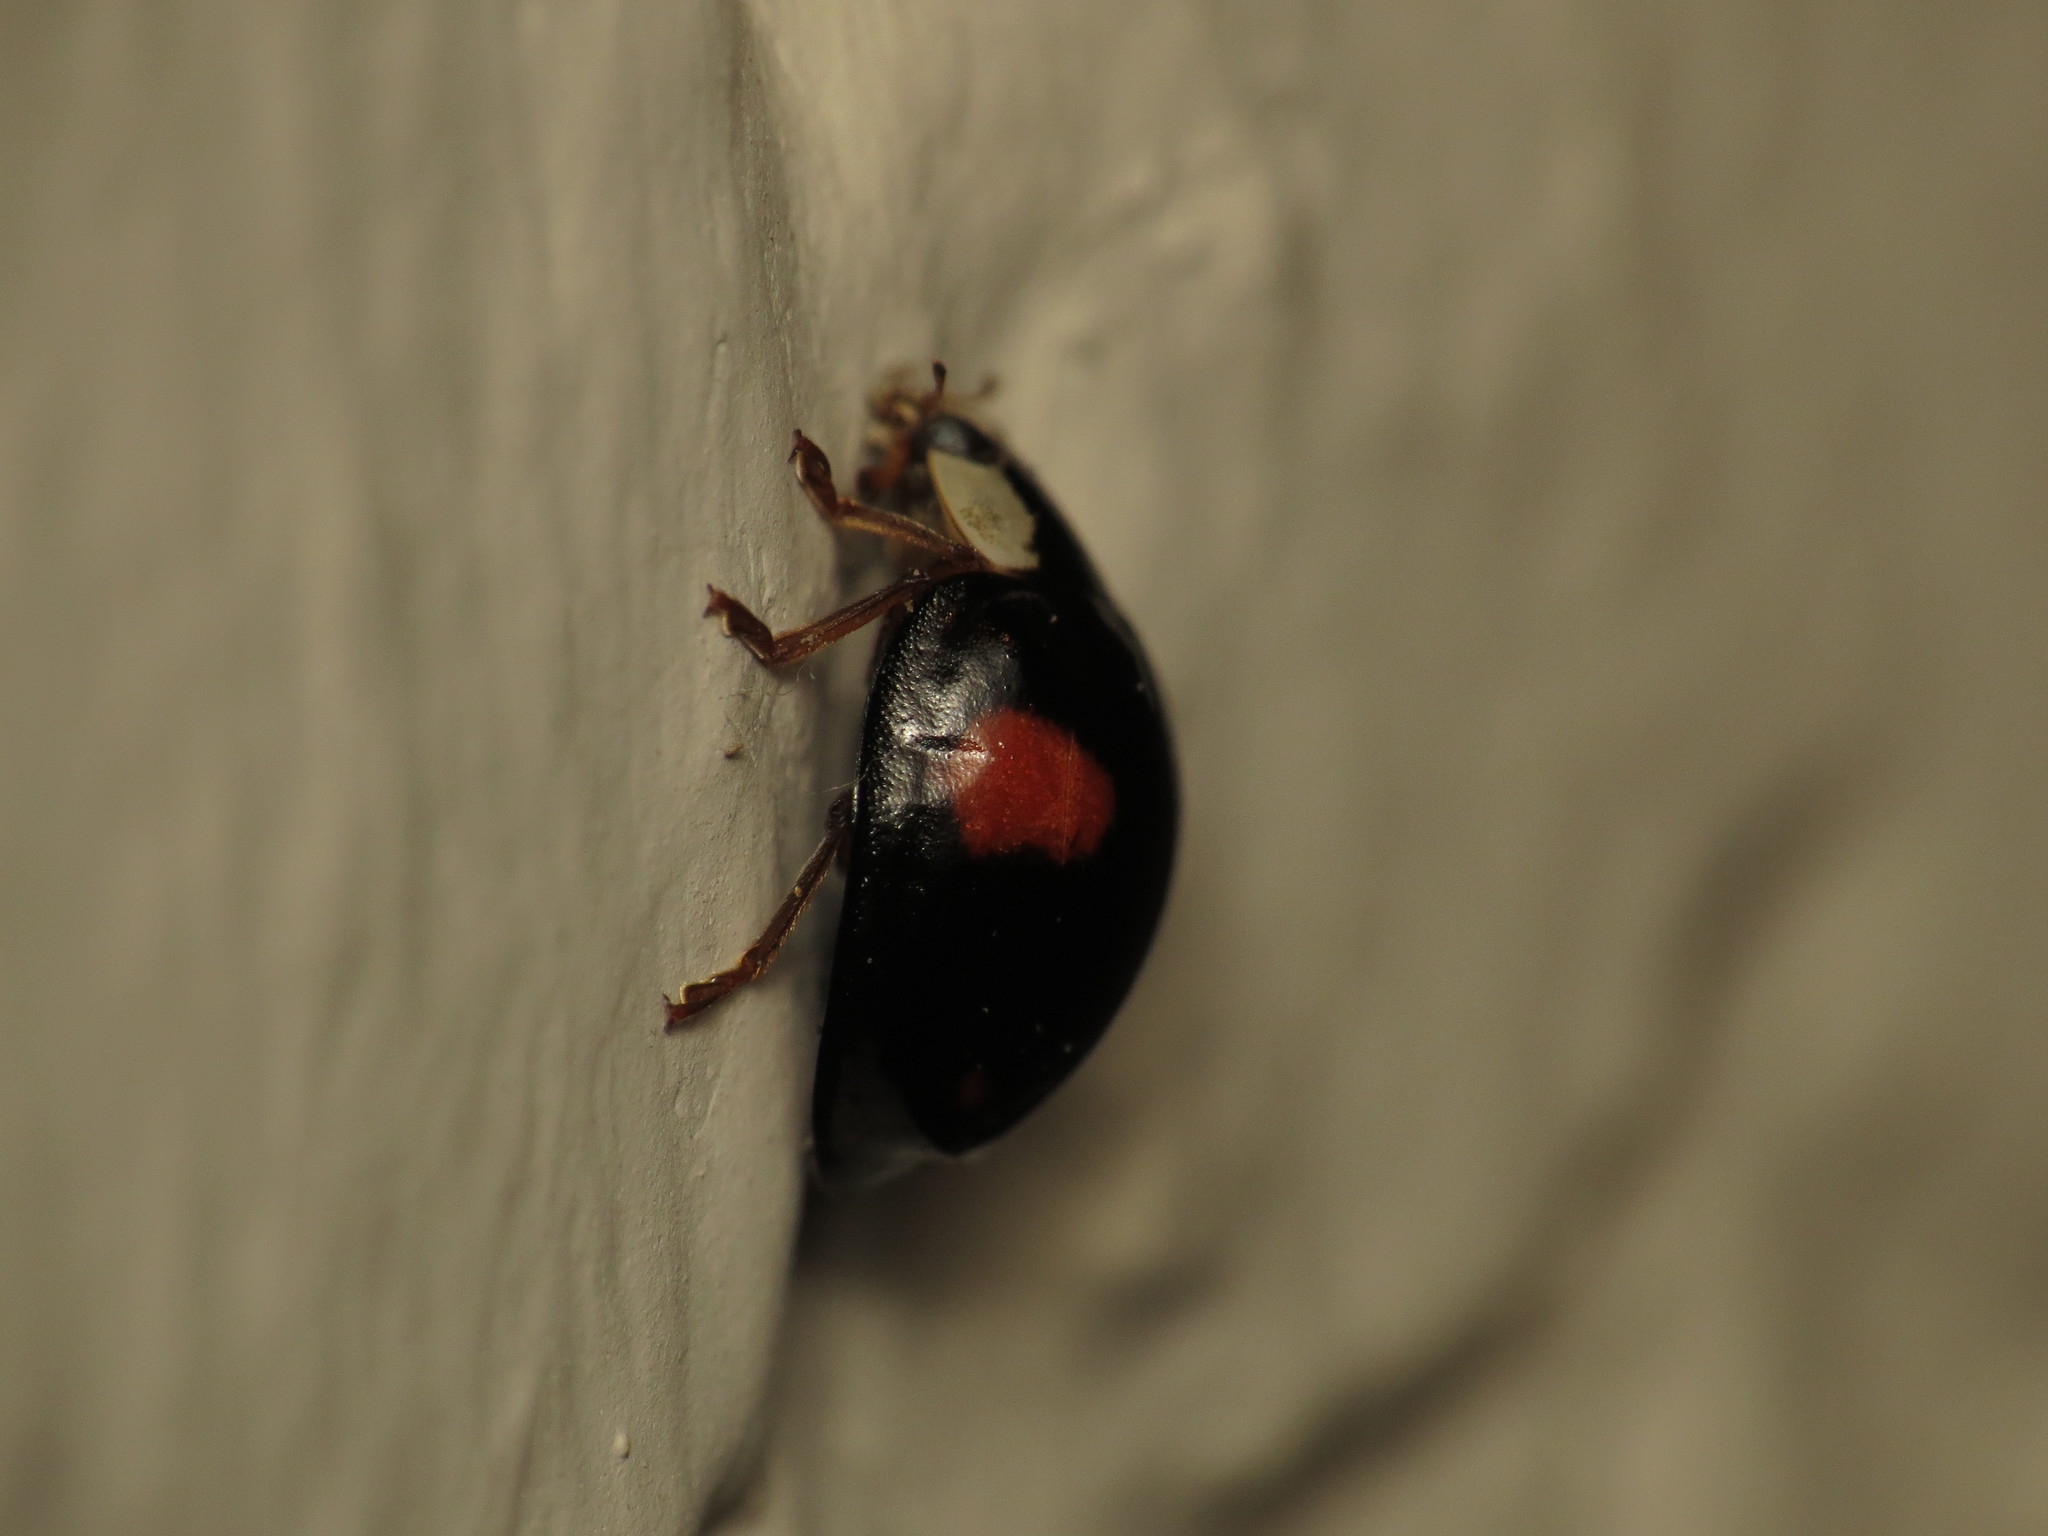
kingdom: Animalia
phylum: Arthropoda
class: Insecta
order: Coleoptera
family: Coccinellidae
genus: Harmonia
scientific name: Harmonia axyridis
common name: Harlequin ladybird
